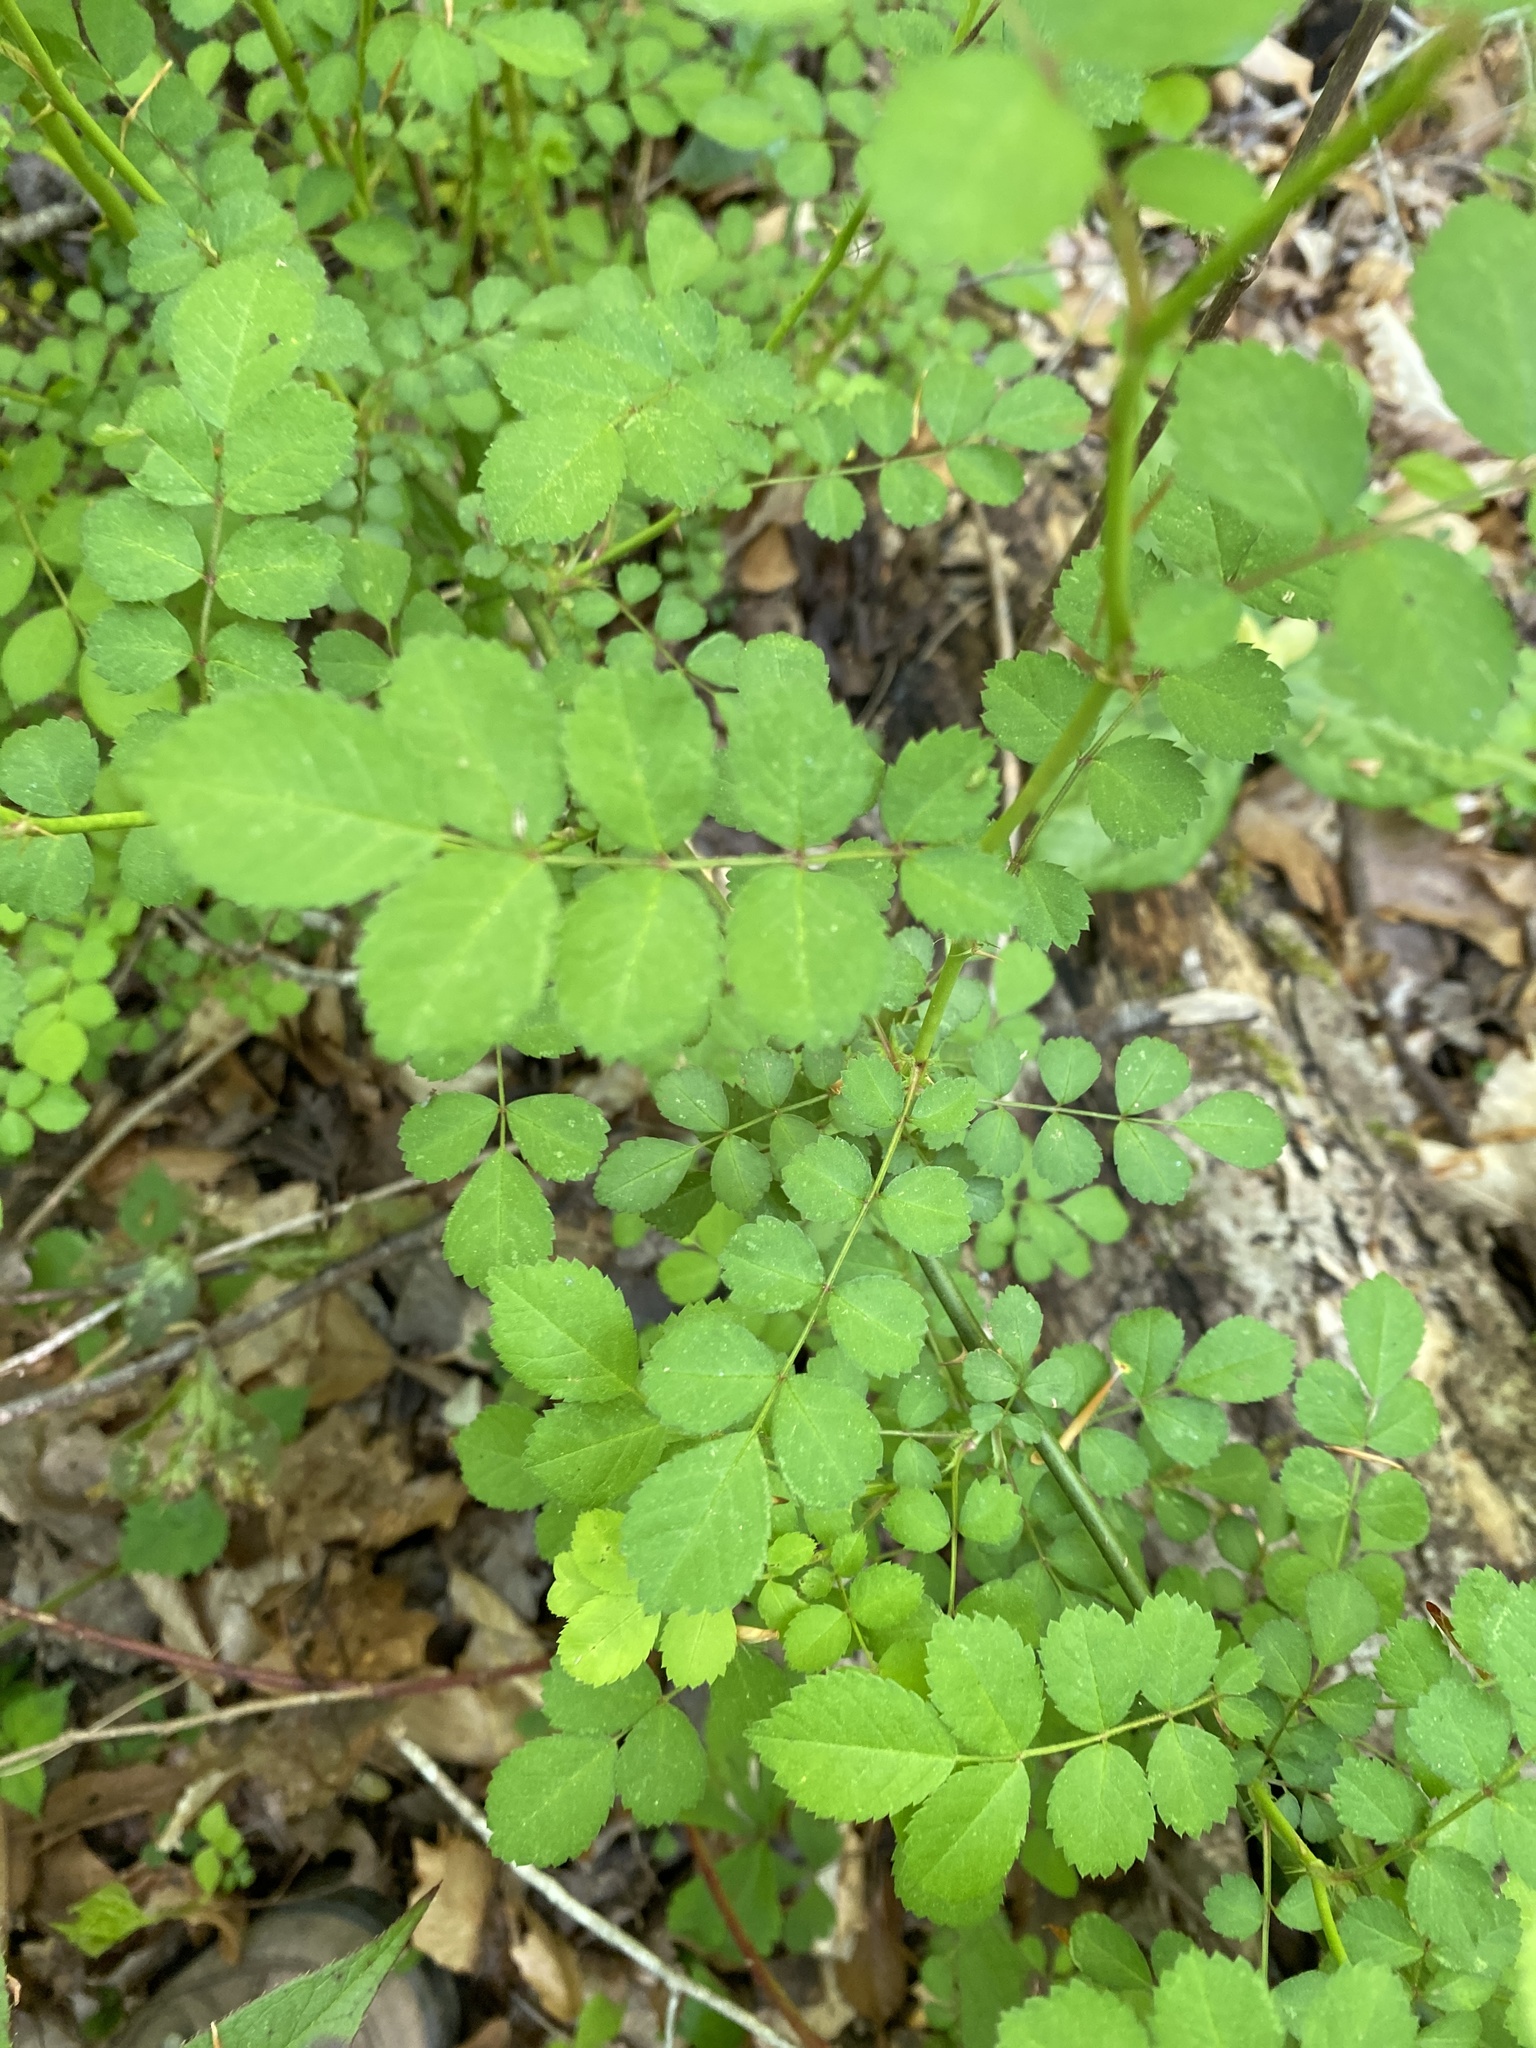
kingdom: Plantae
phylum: Tracheophyta
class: Magnoliopsida
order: Rosales
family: Rosaceae
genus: Rosa
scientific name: Rosa multiflora
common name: Multiflora rose
